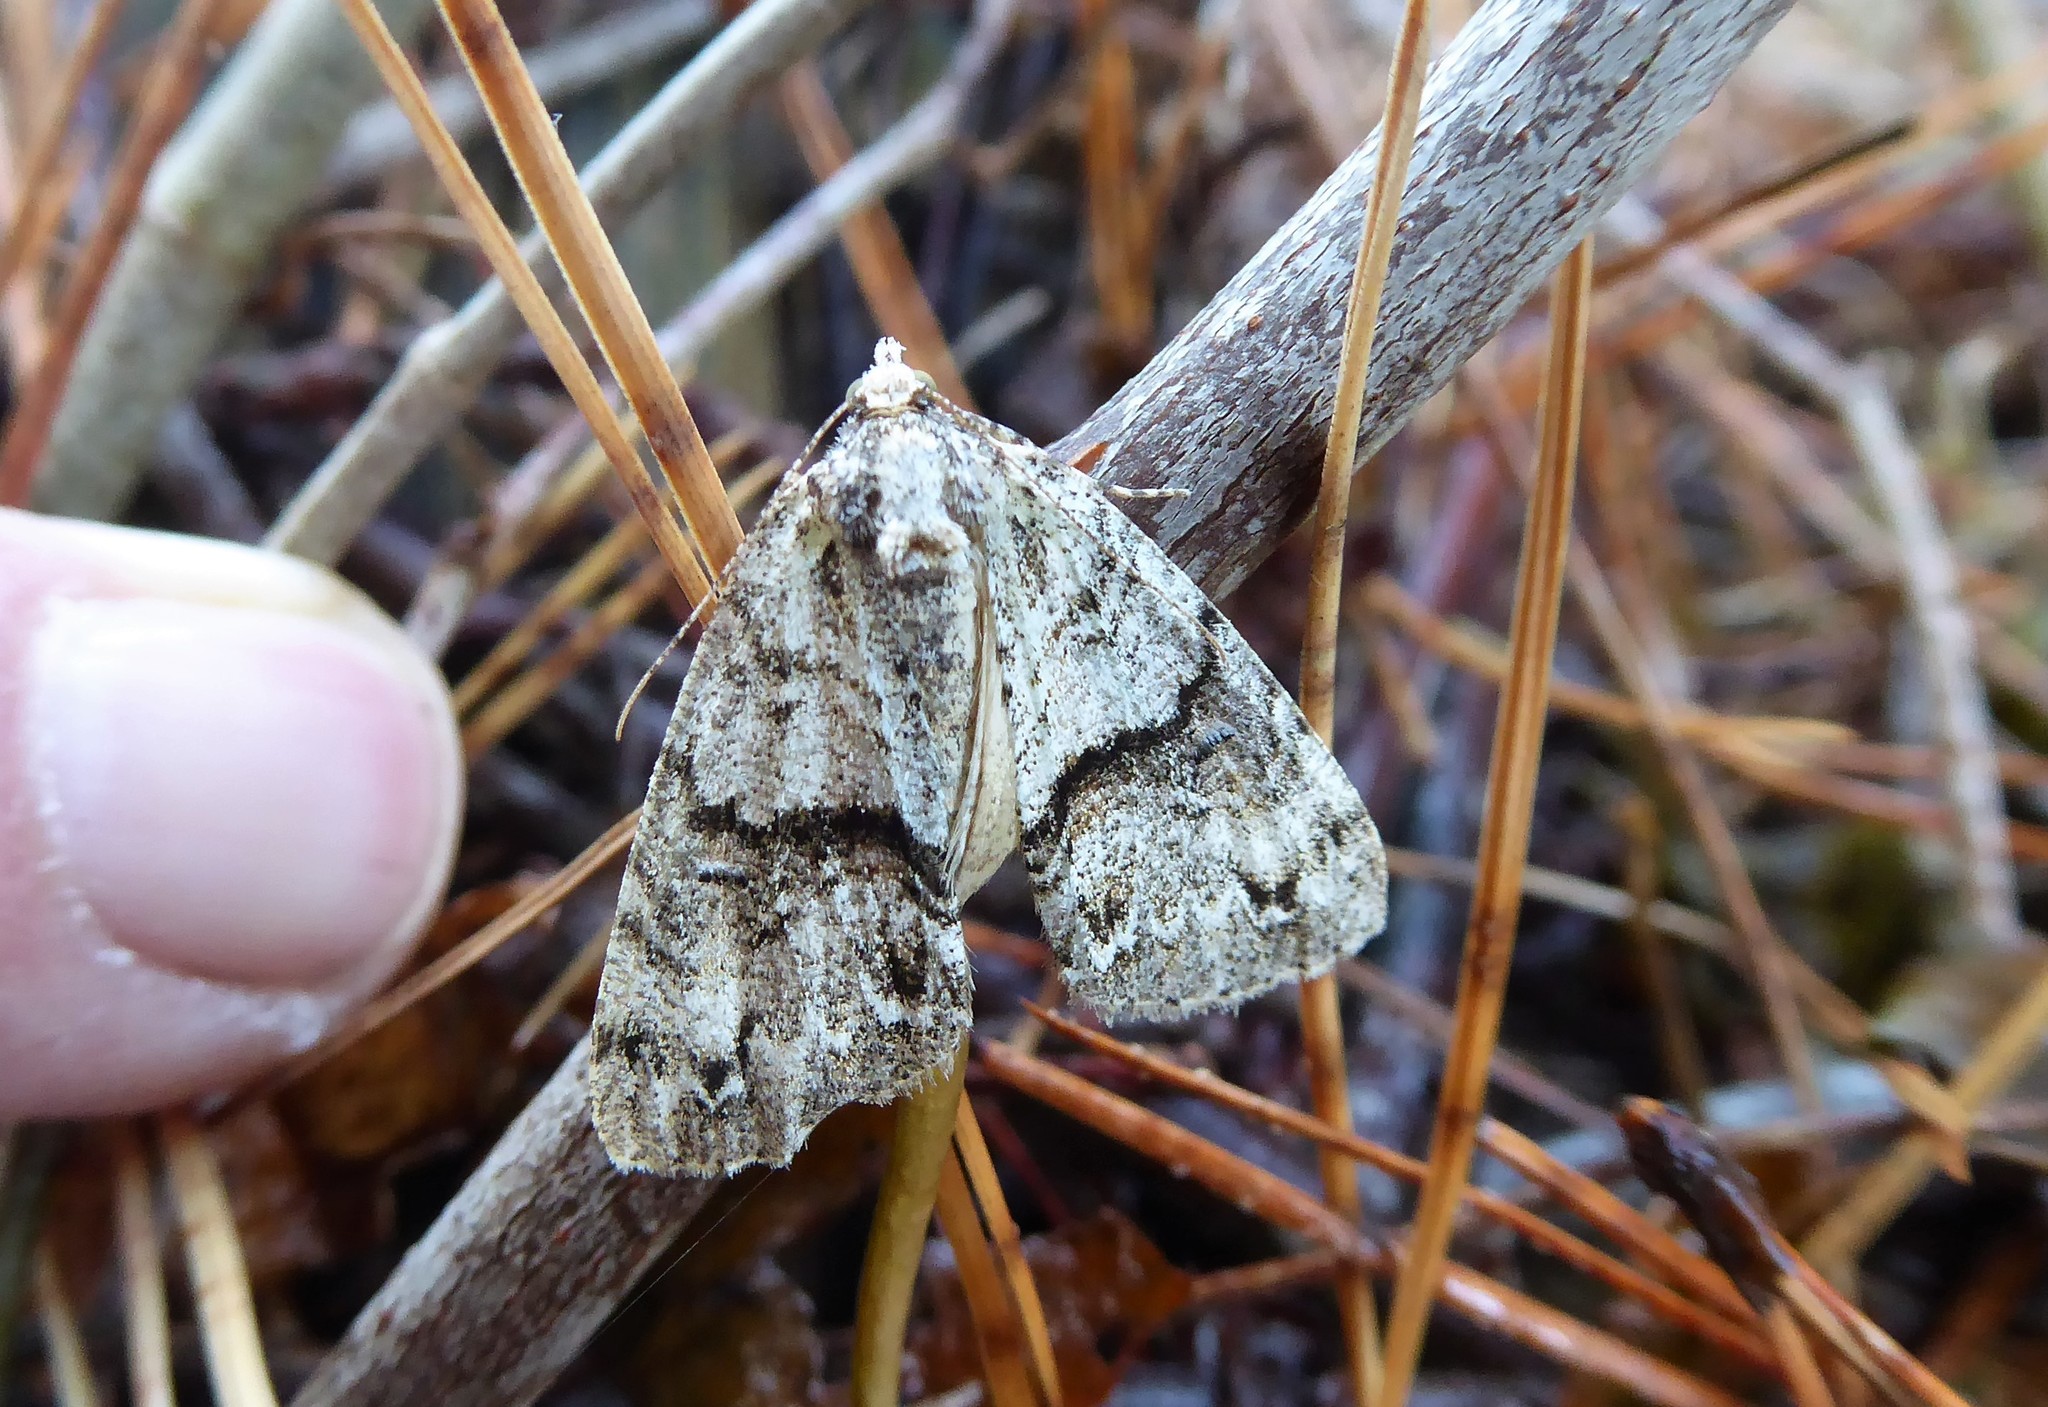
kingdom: Animalia
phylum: Arthropoda
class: Insecta
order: Lepidoptera
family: Geometridae
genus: Pseudocoremia
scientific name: Pseudocoremia suavis
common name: Common forest looper
